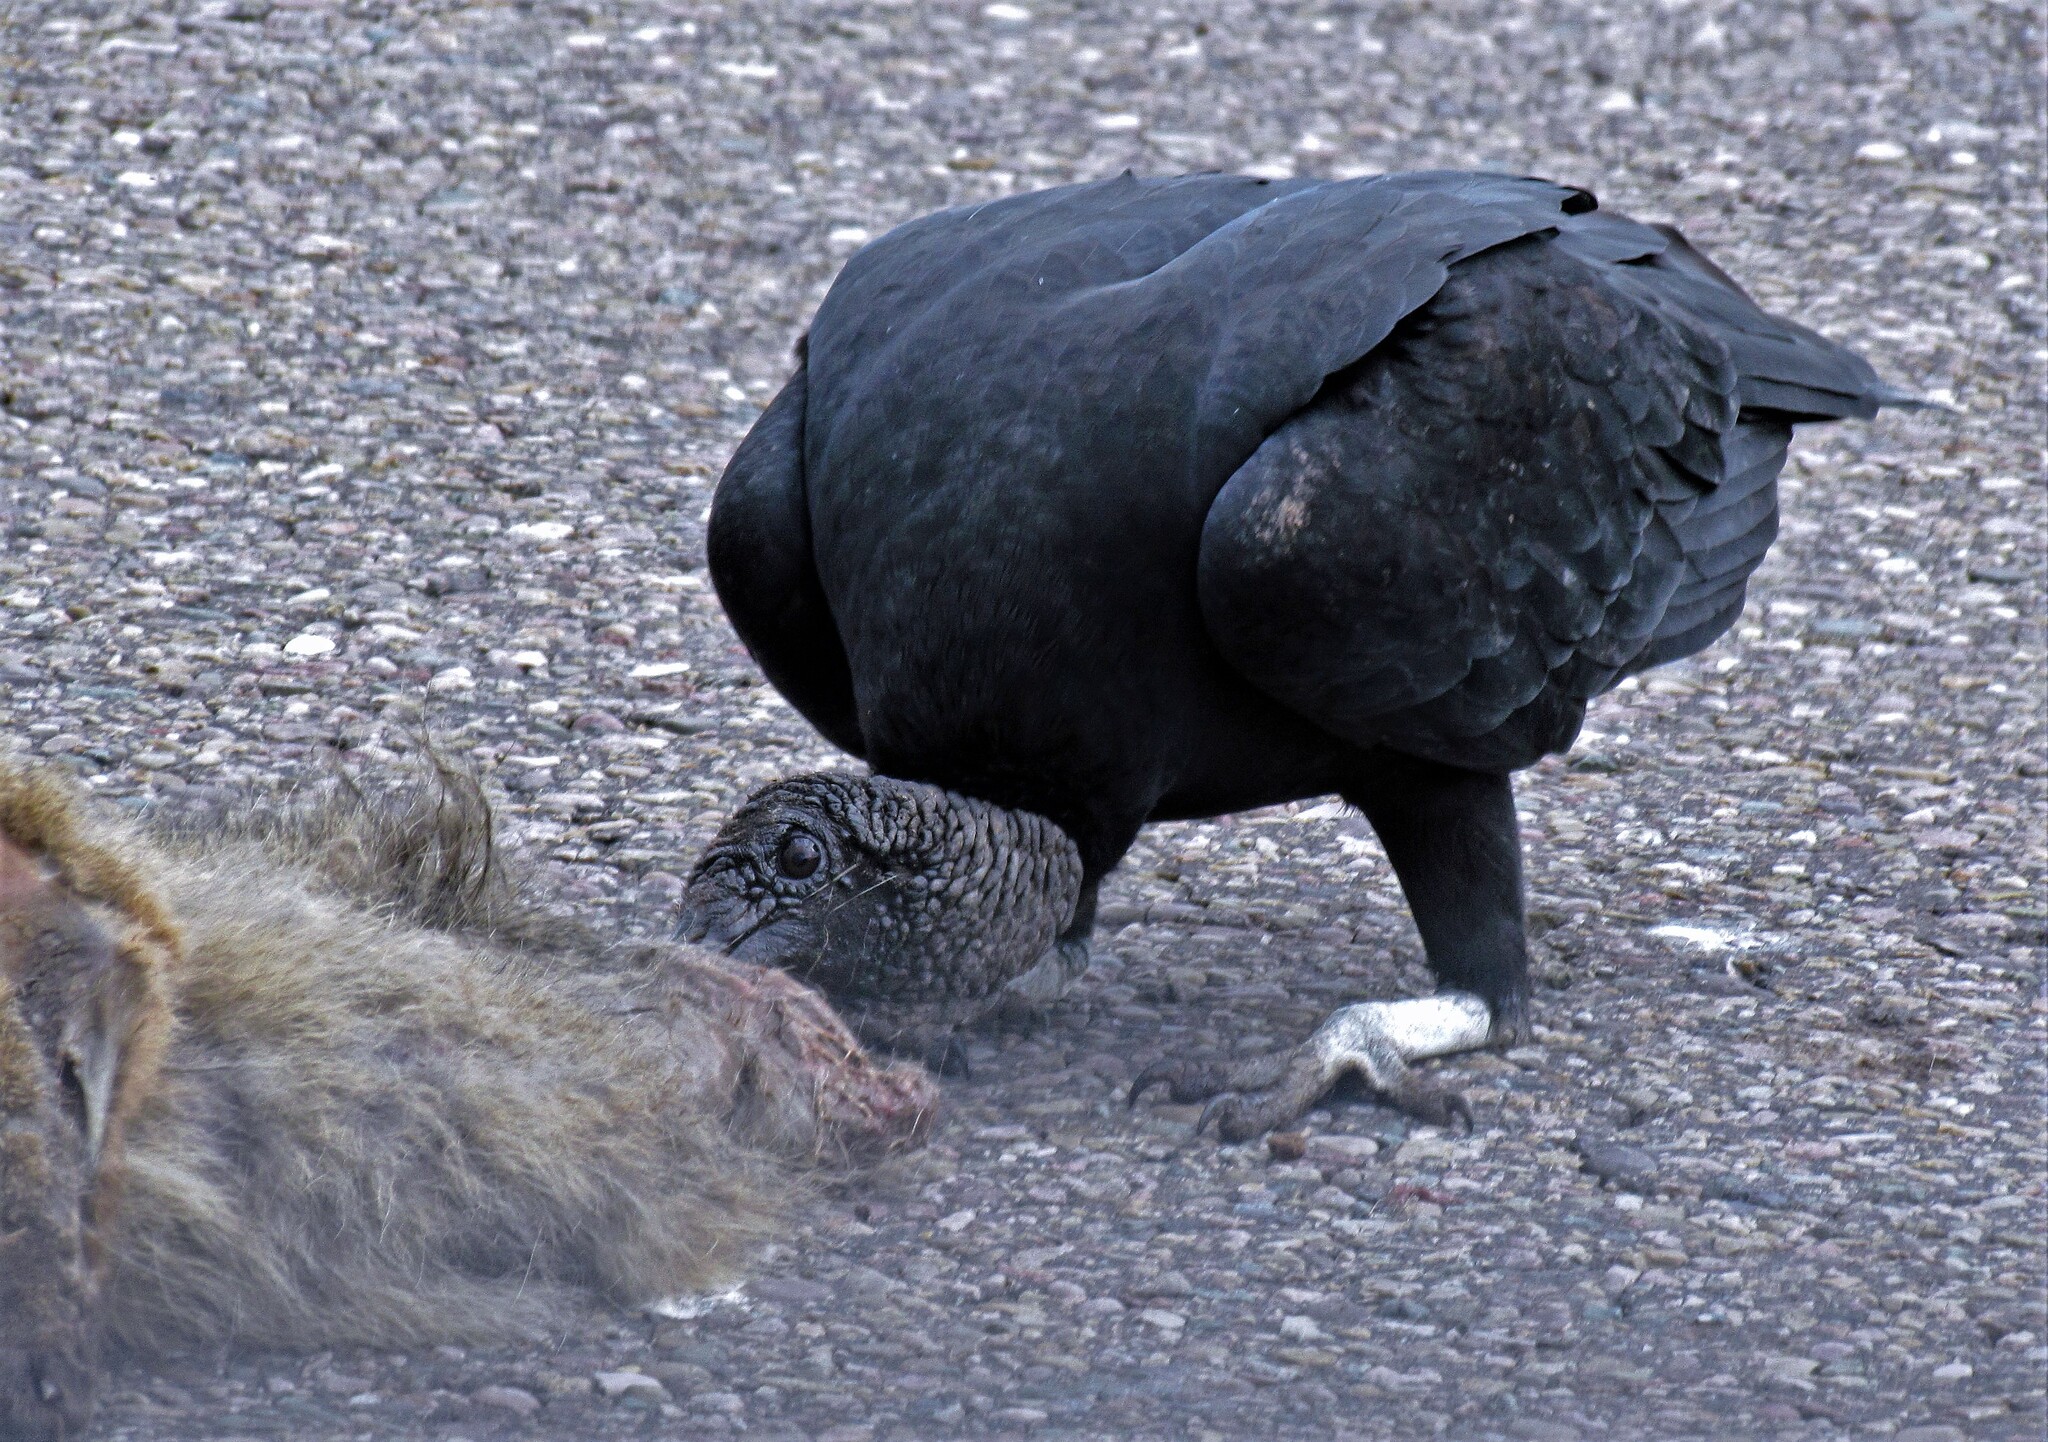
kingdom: Animalia
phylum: Chordata
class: Aves
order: Accipitriformes
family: Cathartidae
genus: Coragyps
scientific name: Coragyps atratus
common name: Black vulture
